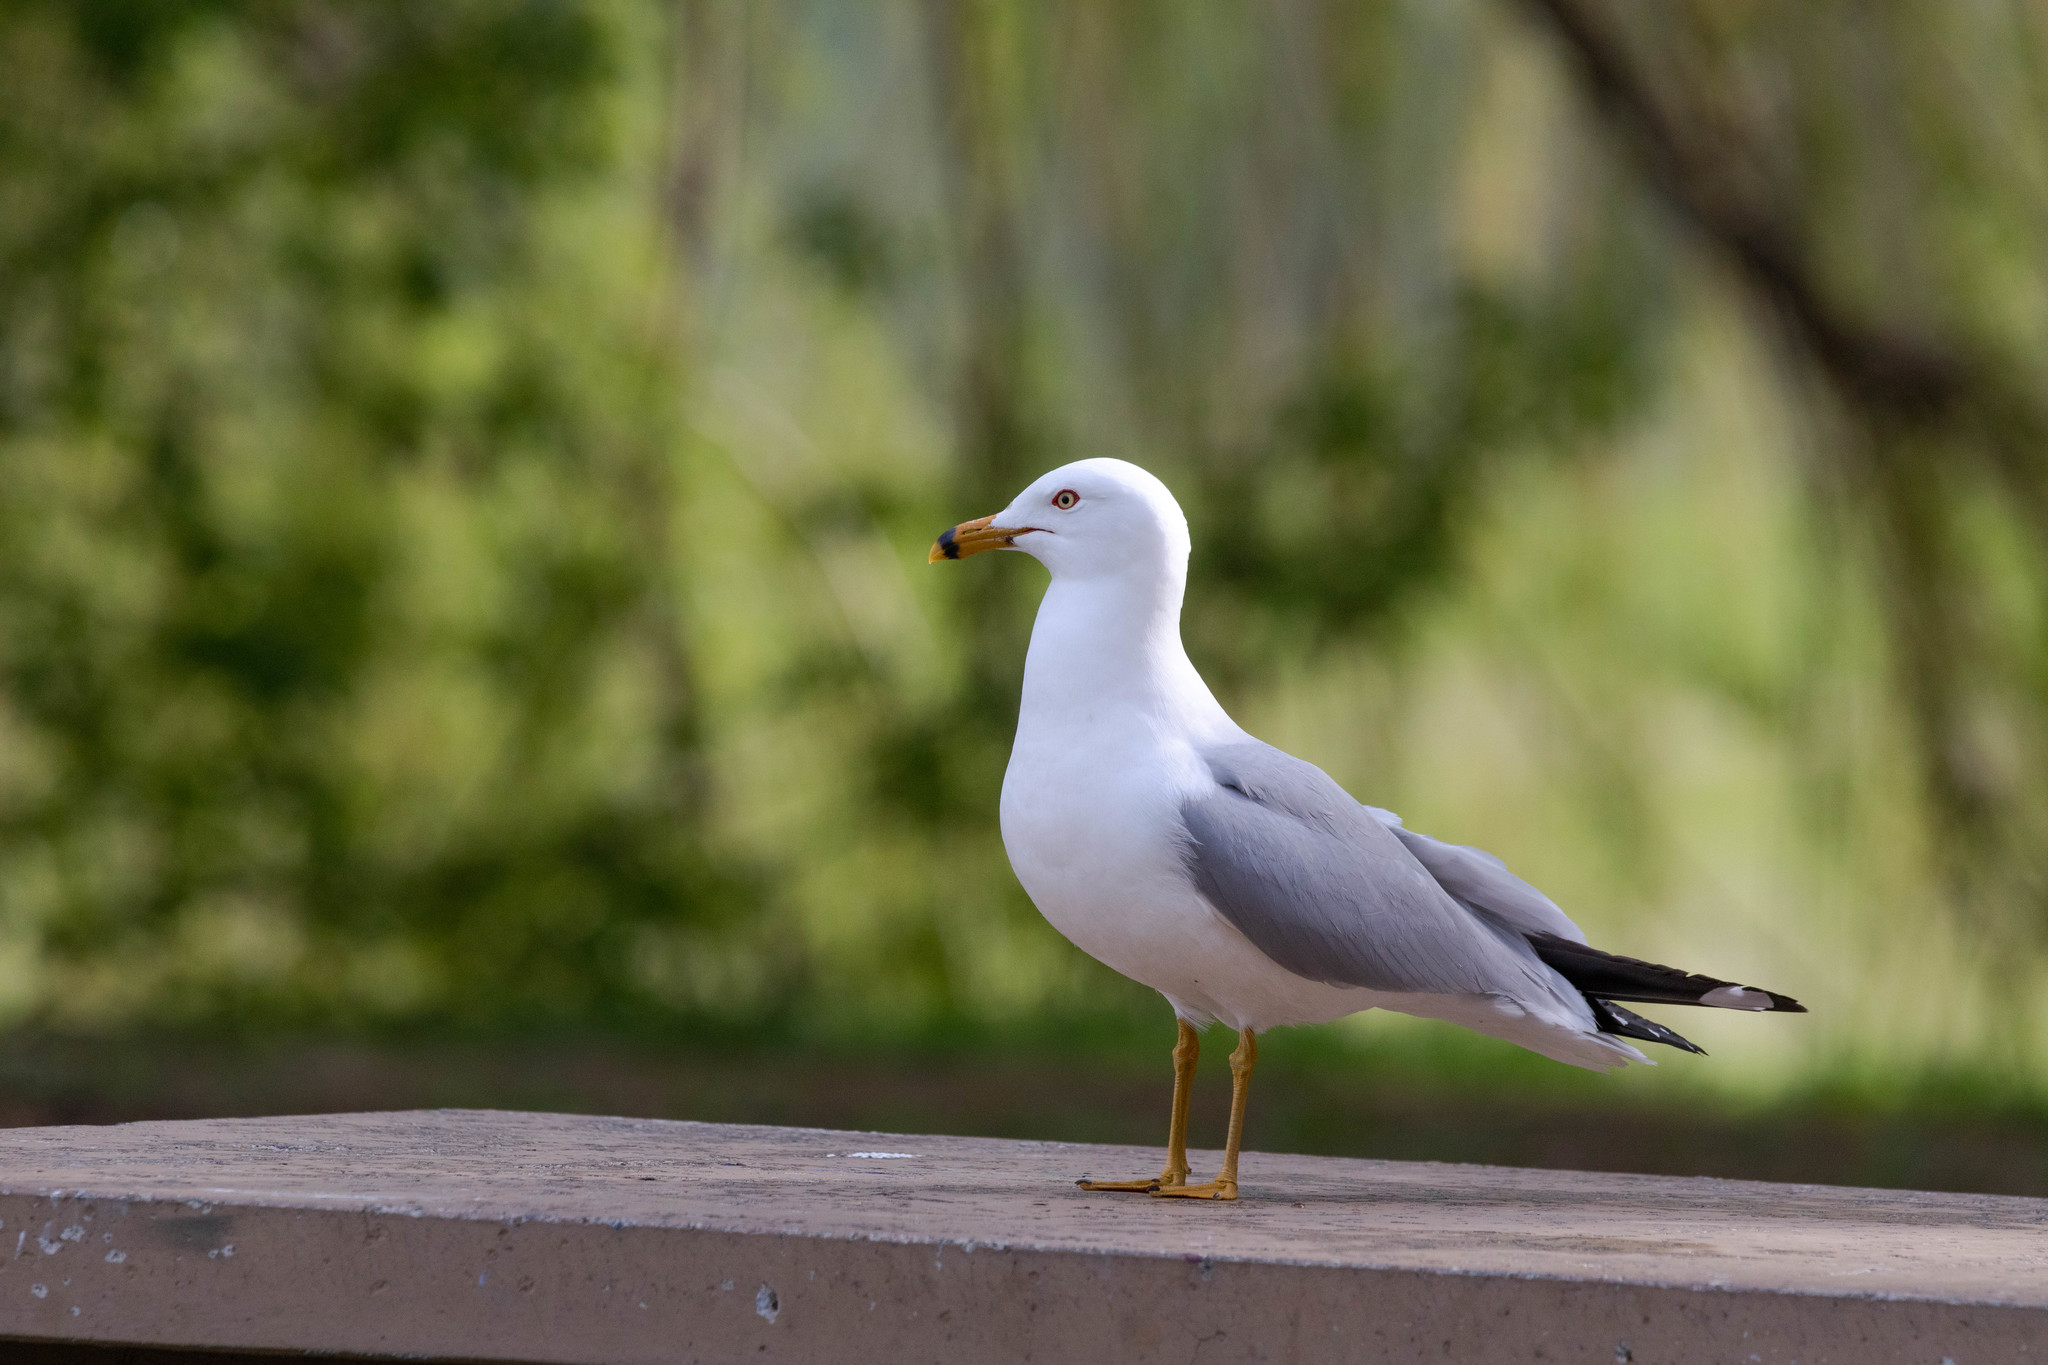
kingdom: Animalia
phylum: Chordata
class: Aves
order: Charadriiformes
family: Laridae
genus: Larus
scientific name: Larus delawarensis
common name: Ring-billed gull
